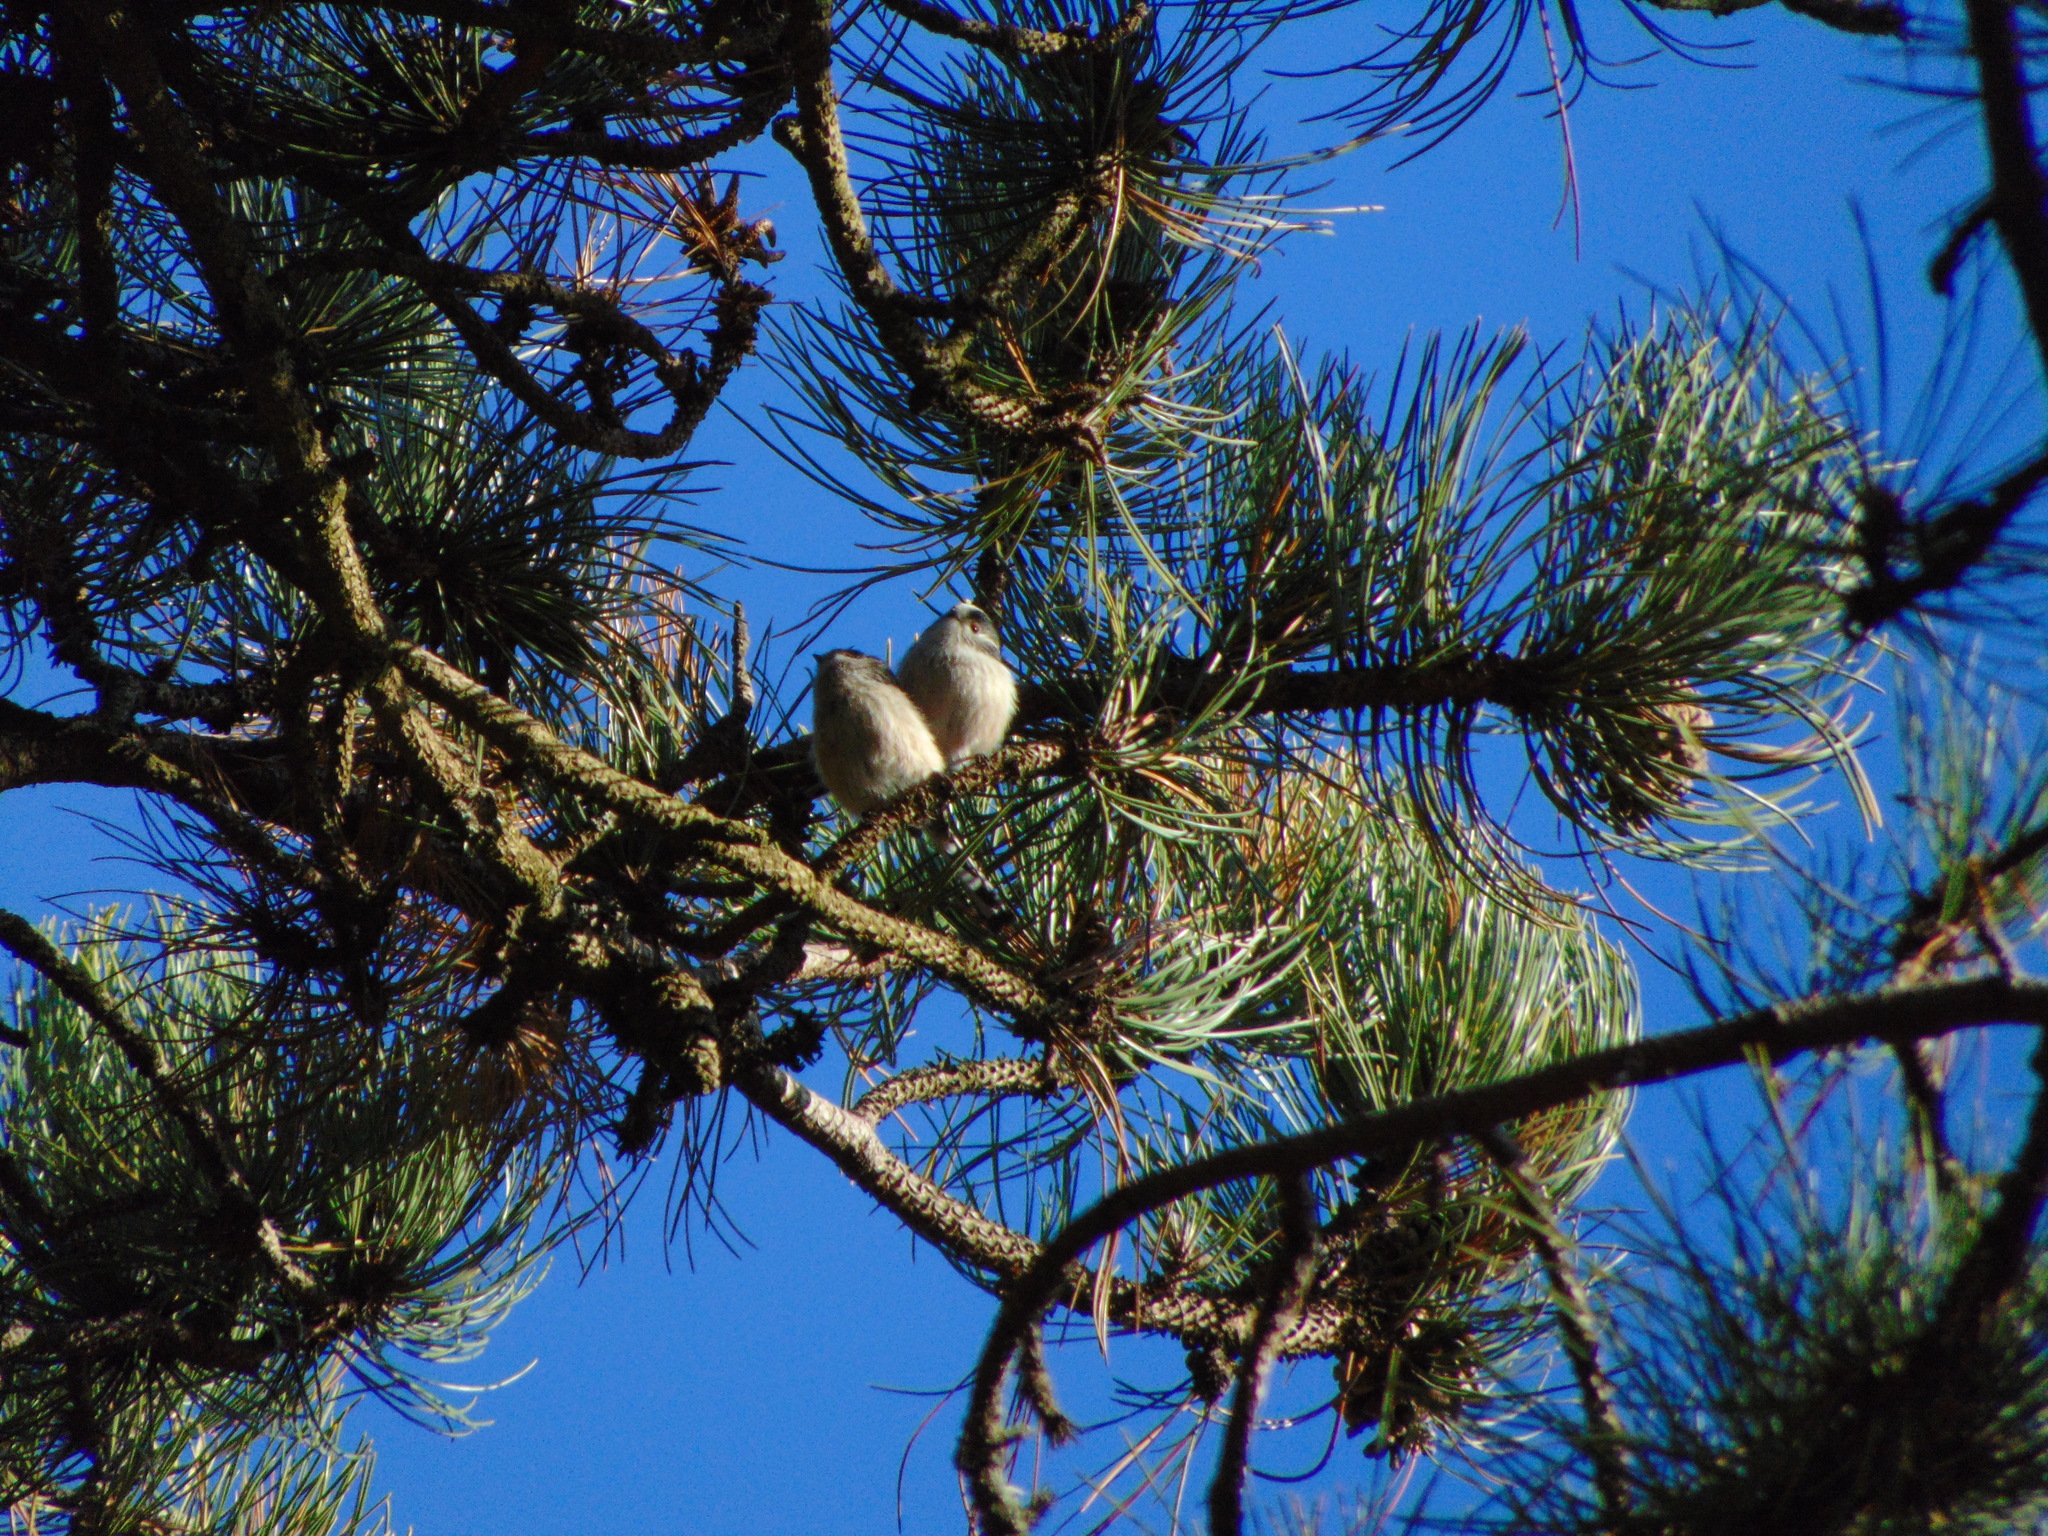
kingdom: Animalia
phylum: Chordata
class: Aves
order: Passeriformes
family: Aegithalidae
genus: Aegithalos
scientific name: Aegithalos caudatus
